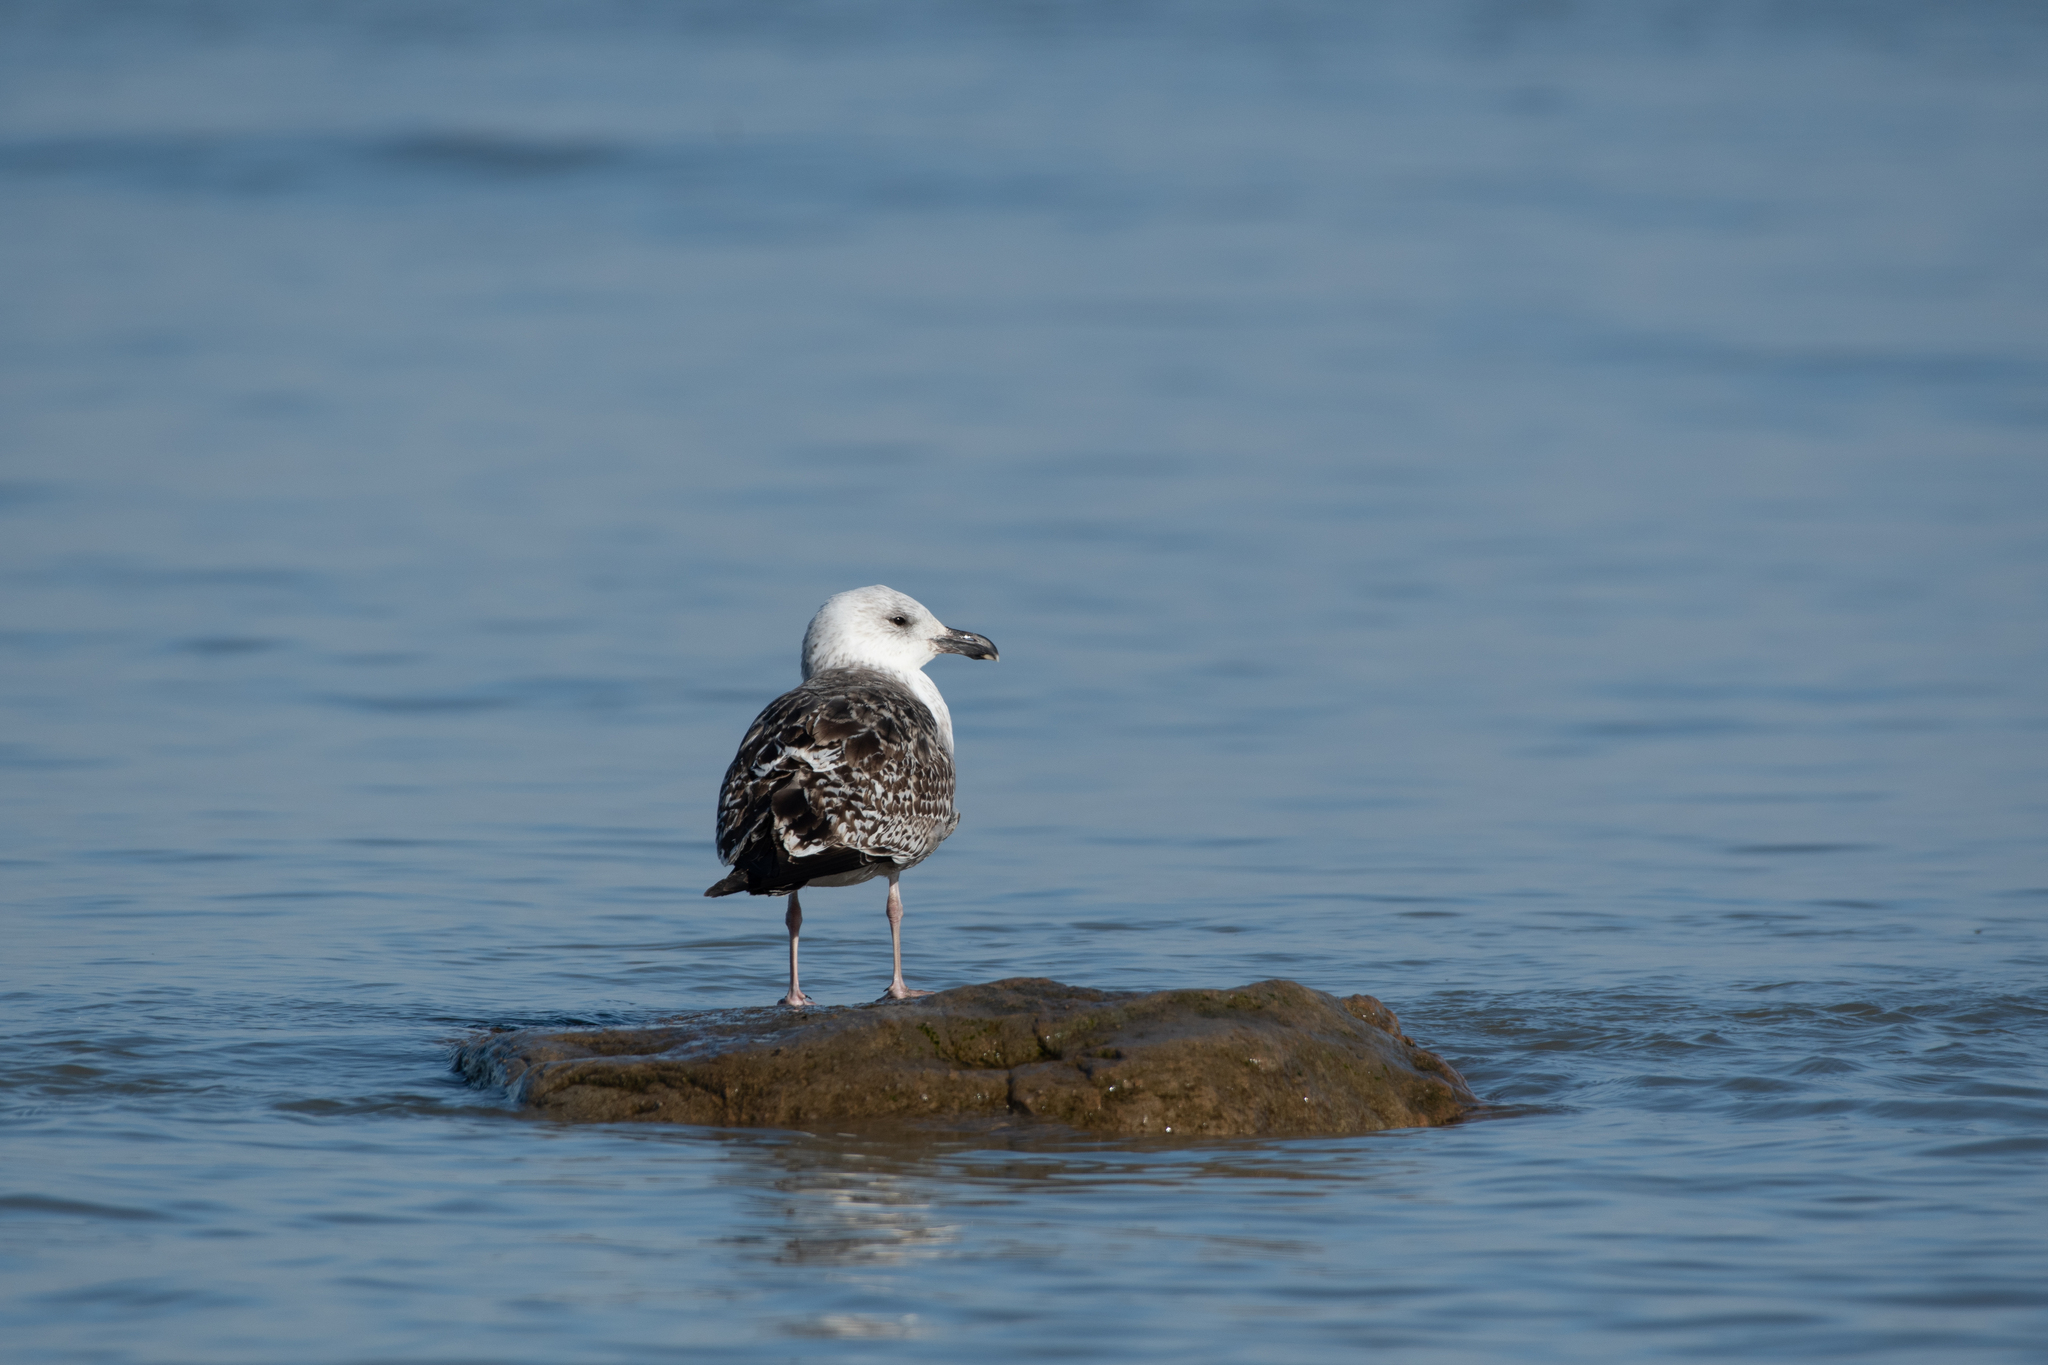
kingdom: Animalia
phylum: Chordata
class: Aves
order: Charadriiformes
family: Laridae
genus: Larus
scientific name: Larus marinus
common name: Great black-backed gull
